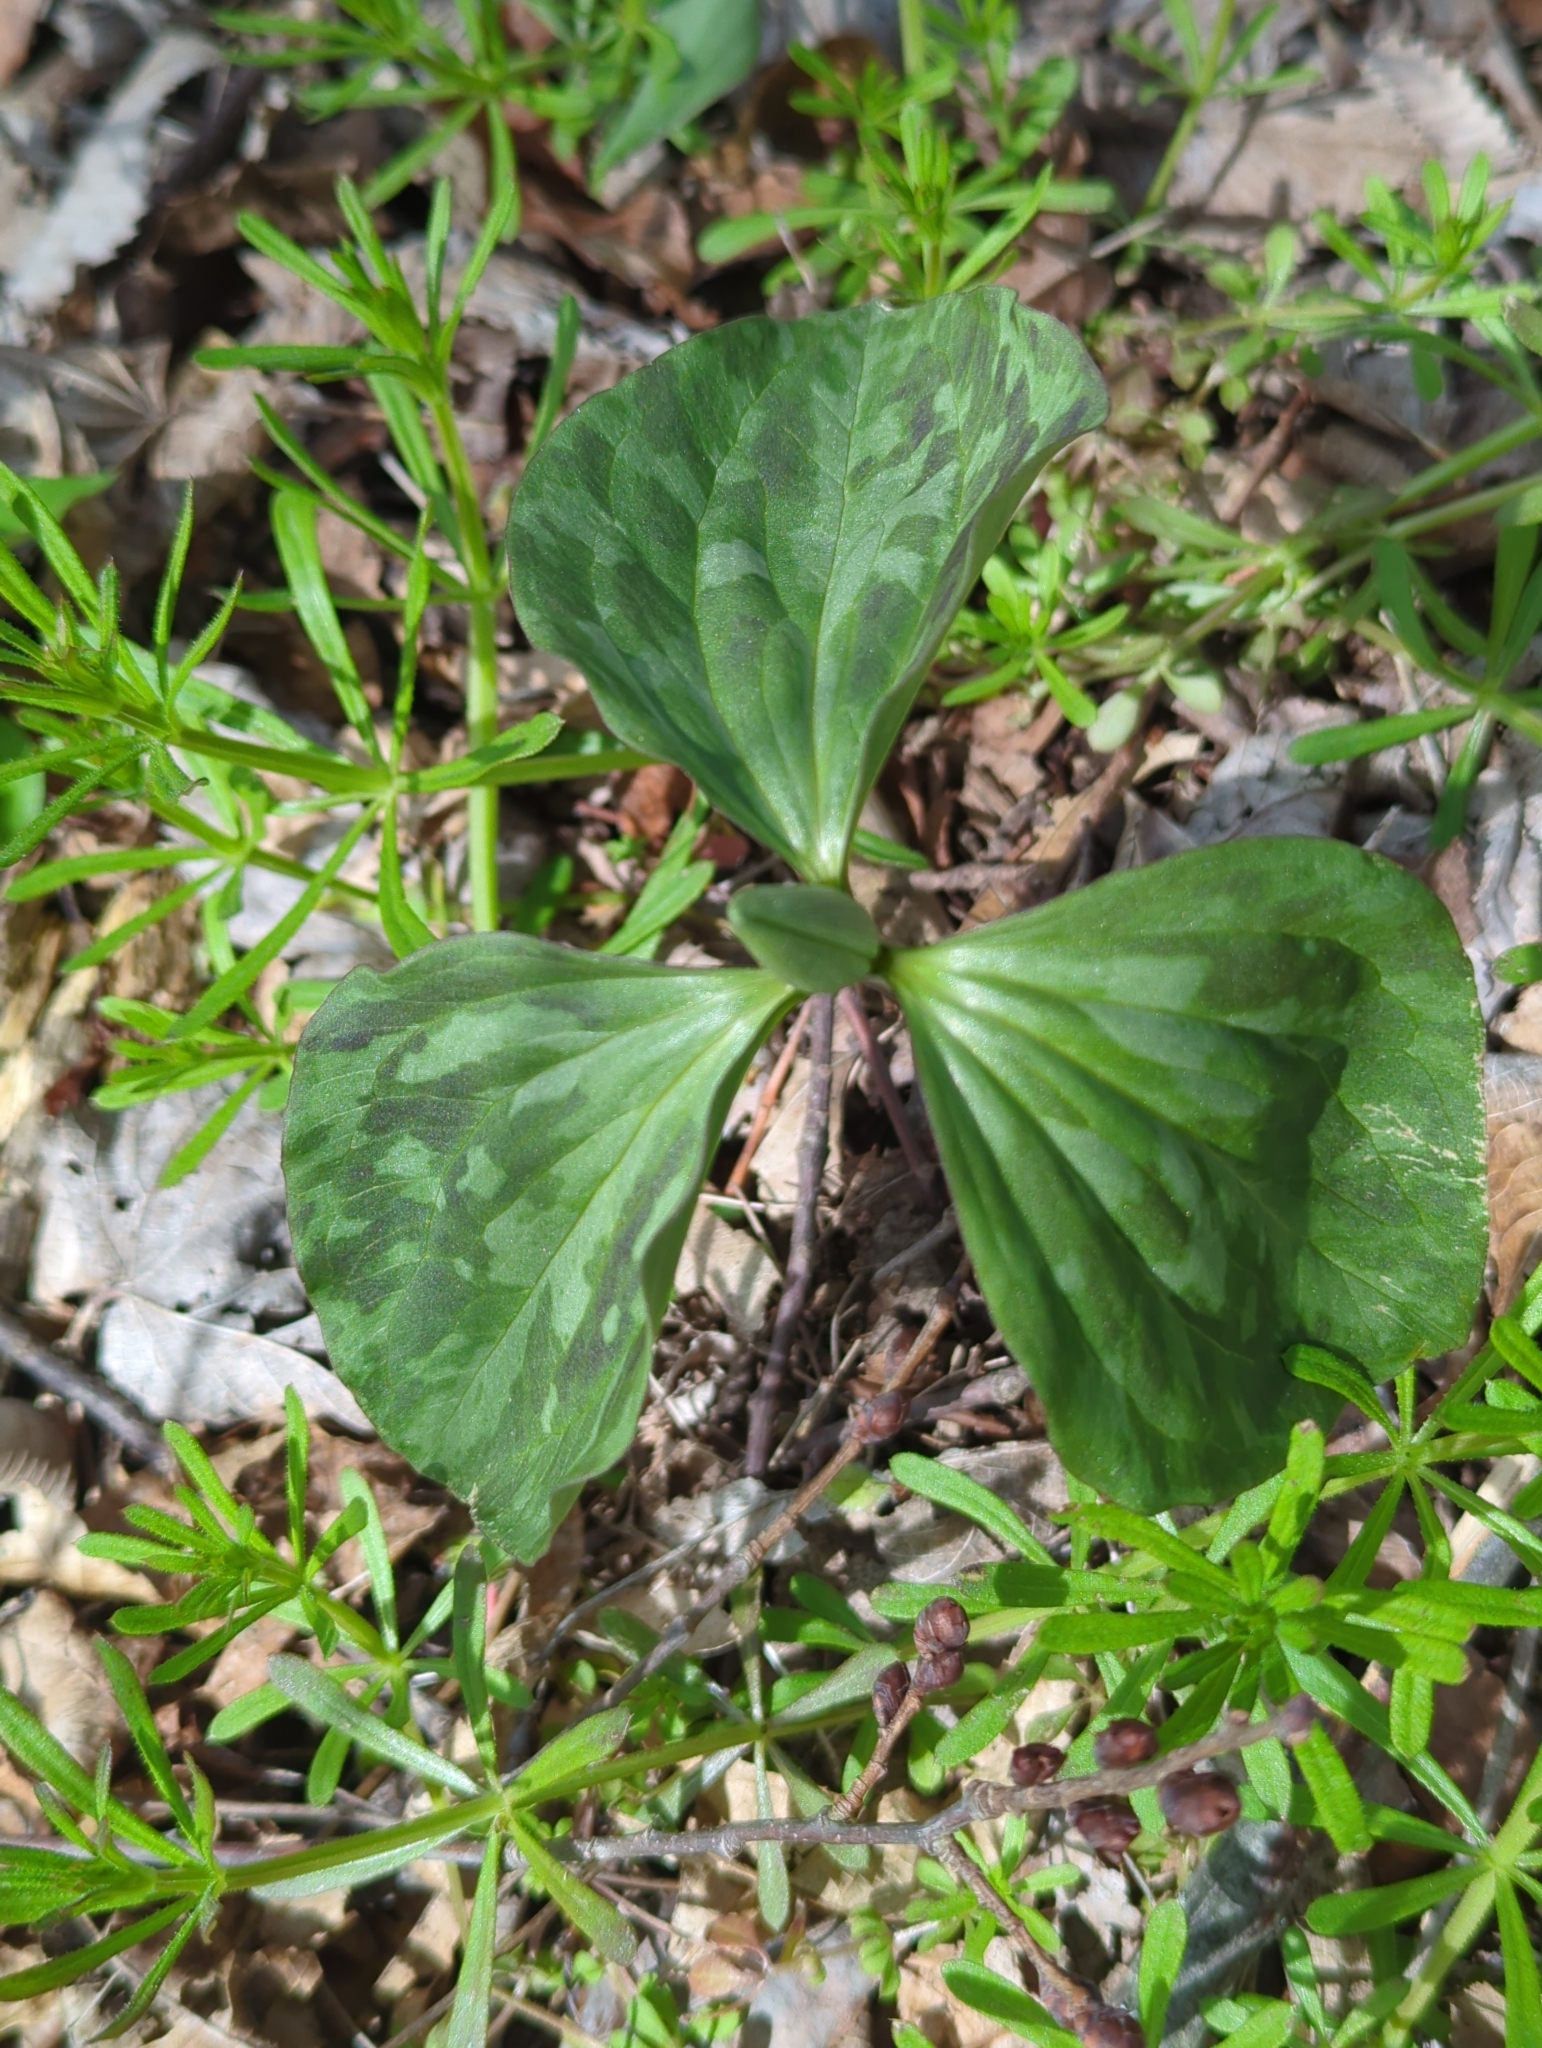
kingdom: Plantae
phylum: Tracheophyta
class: Liliopsida
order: Liliales
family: Melanthiaceae
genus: Trillium
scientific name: Trillium recurvatum
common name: Bloody butcher
